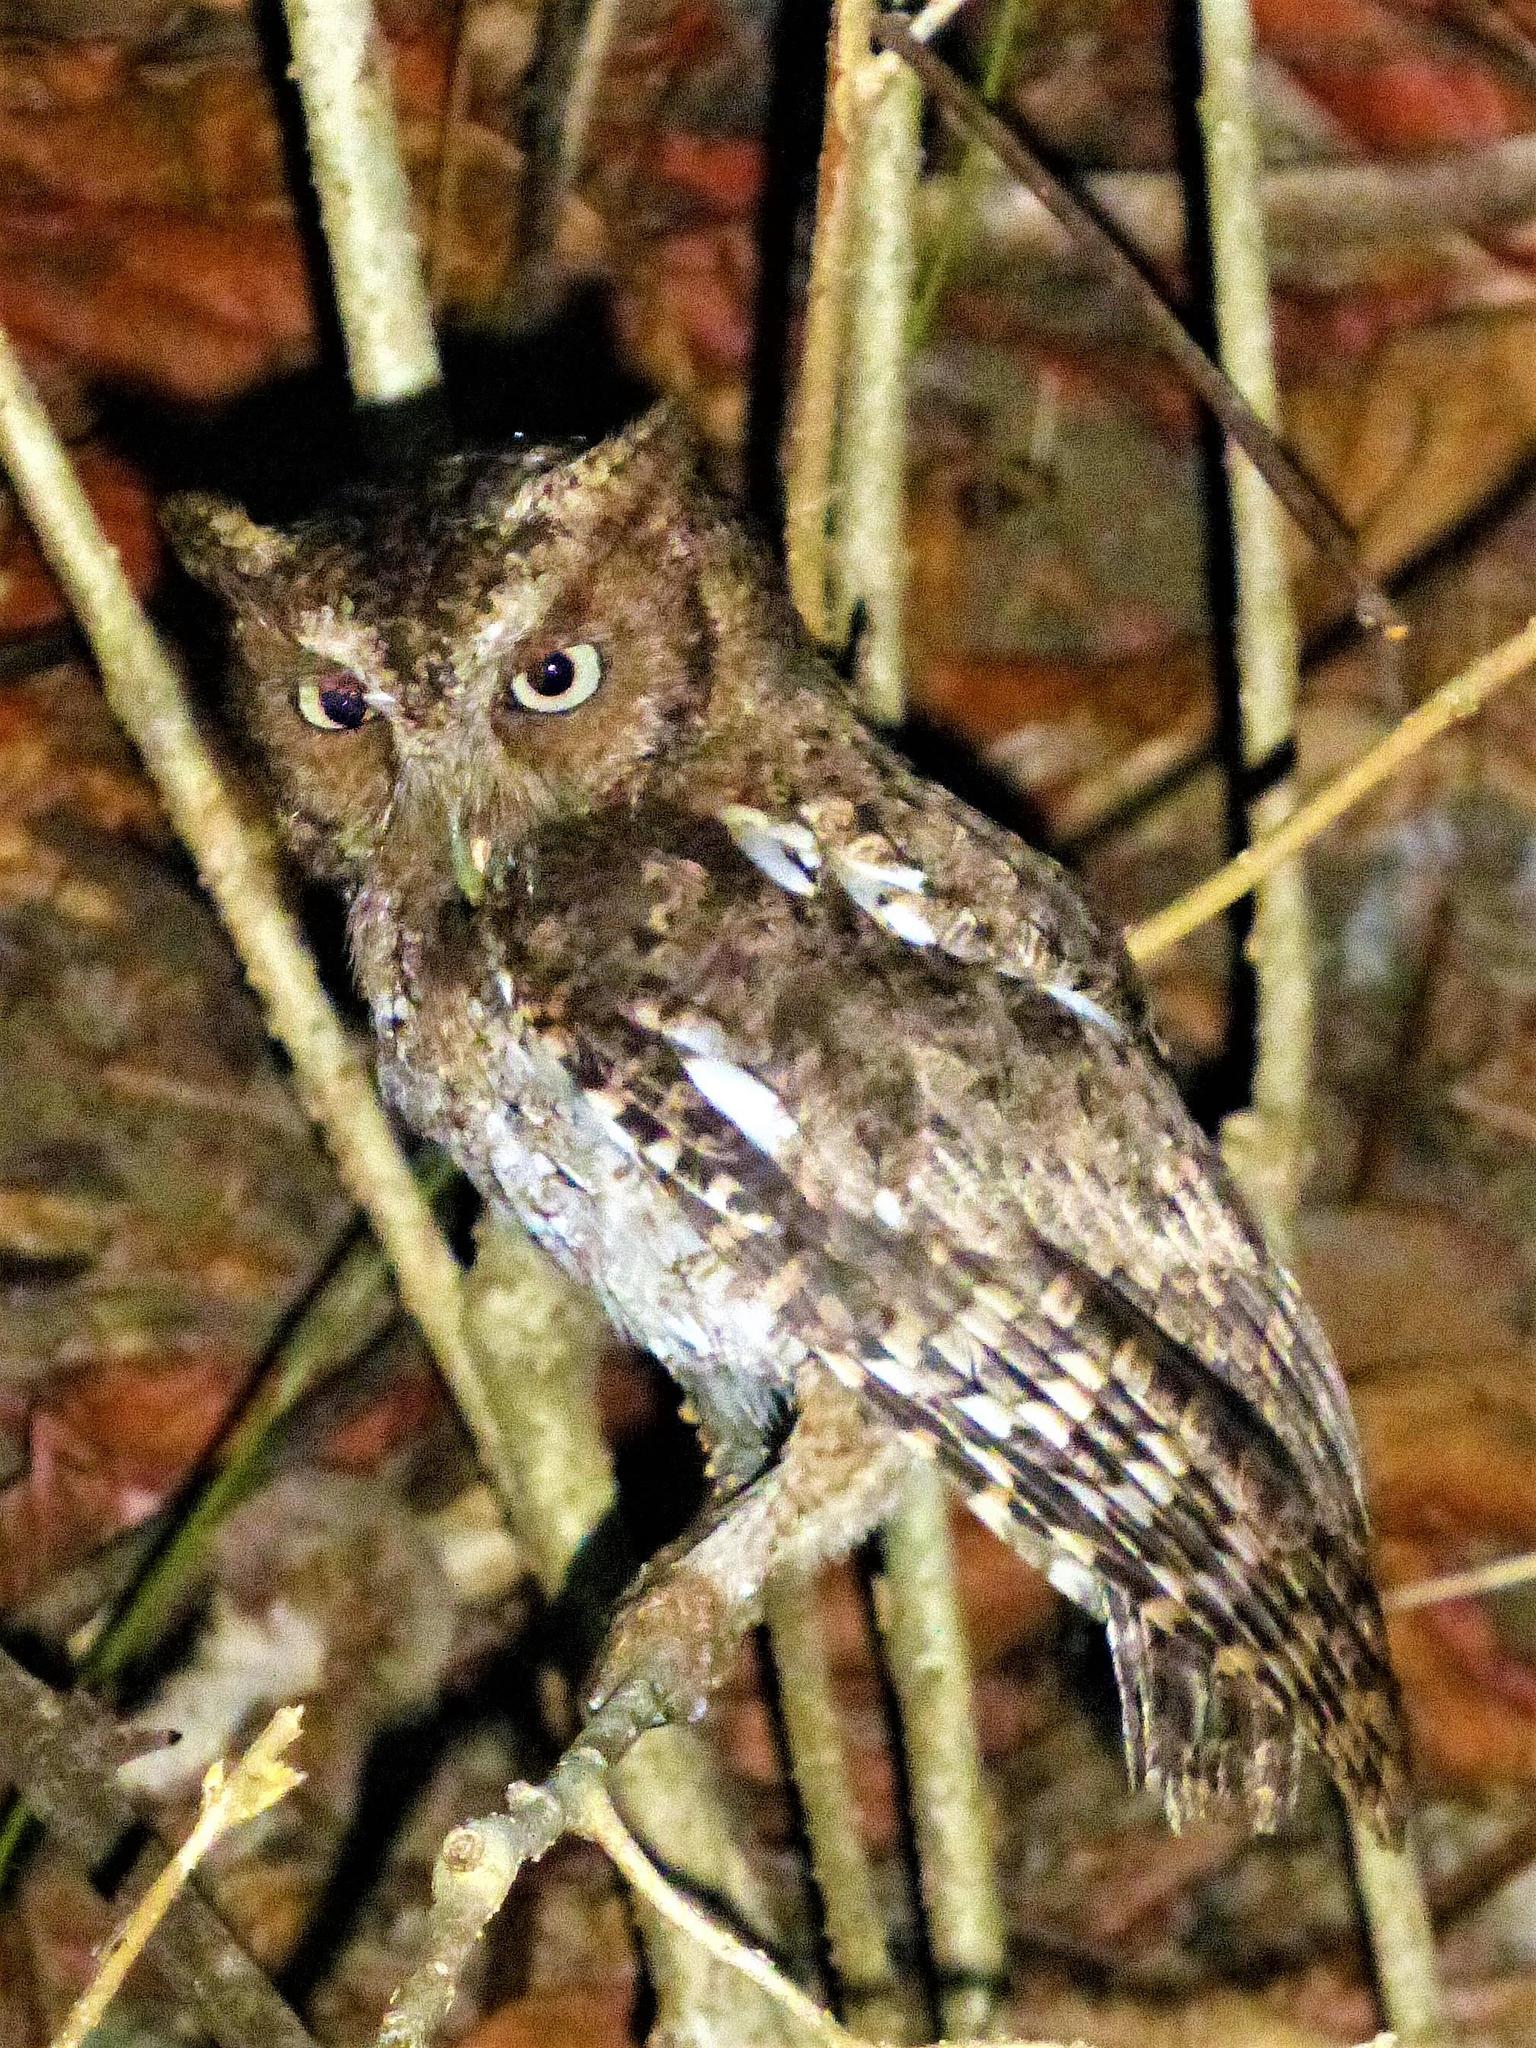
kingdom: Animalia
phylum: Chordata
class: Aves
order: Strigiformes
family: Strigidae
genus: Megascops
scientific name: Megascops guatemalae
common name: Vermiculated screech-owl
